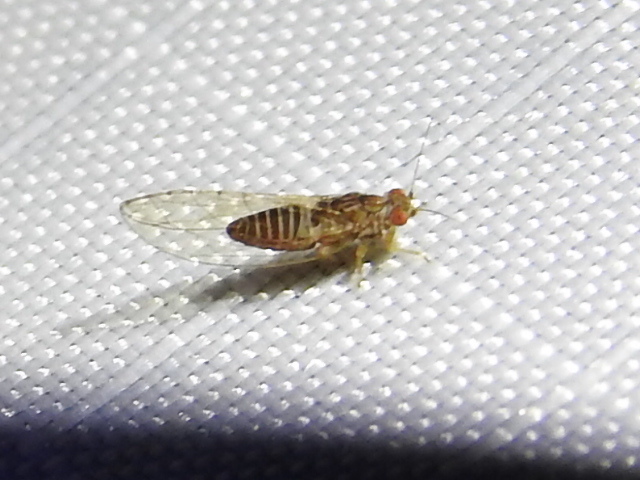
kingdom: Animalia
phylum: Arthropoda
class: Insecta
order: Hemiptera
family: Triozidae
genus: Trioza
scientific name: Trioza magnoliae
